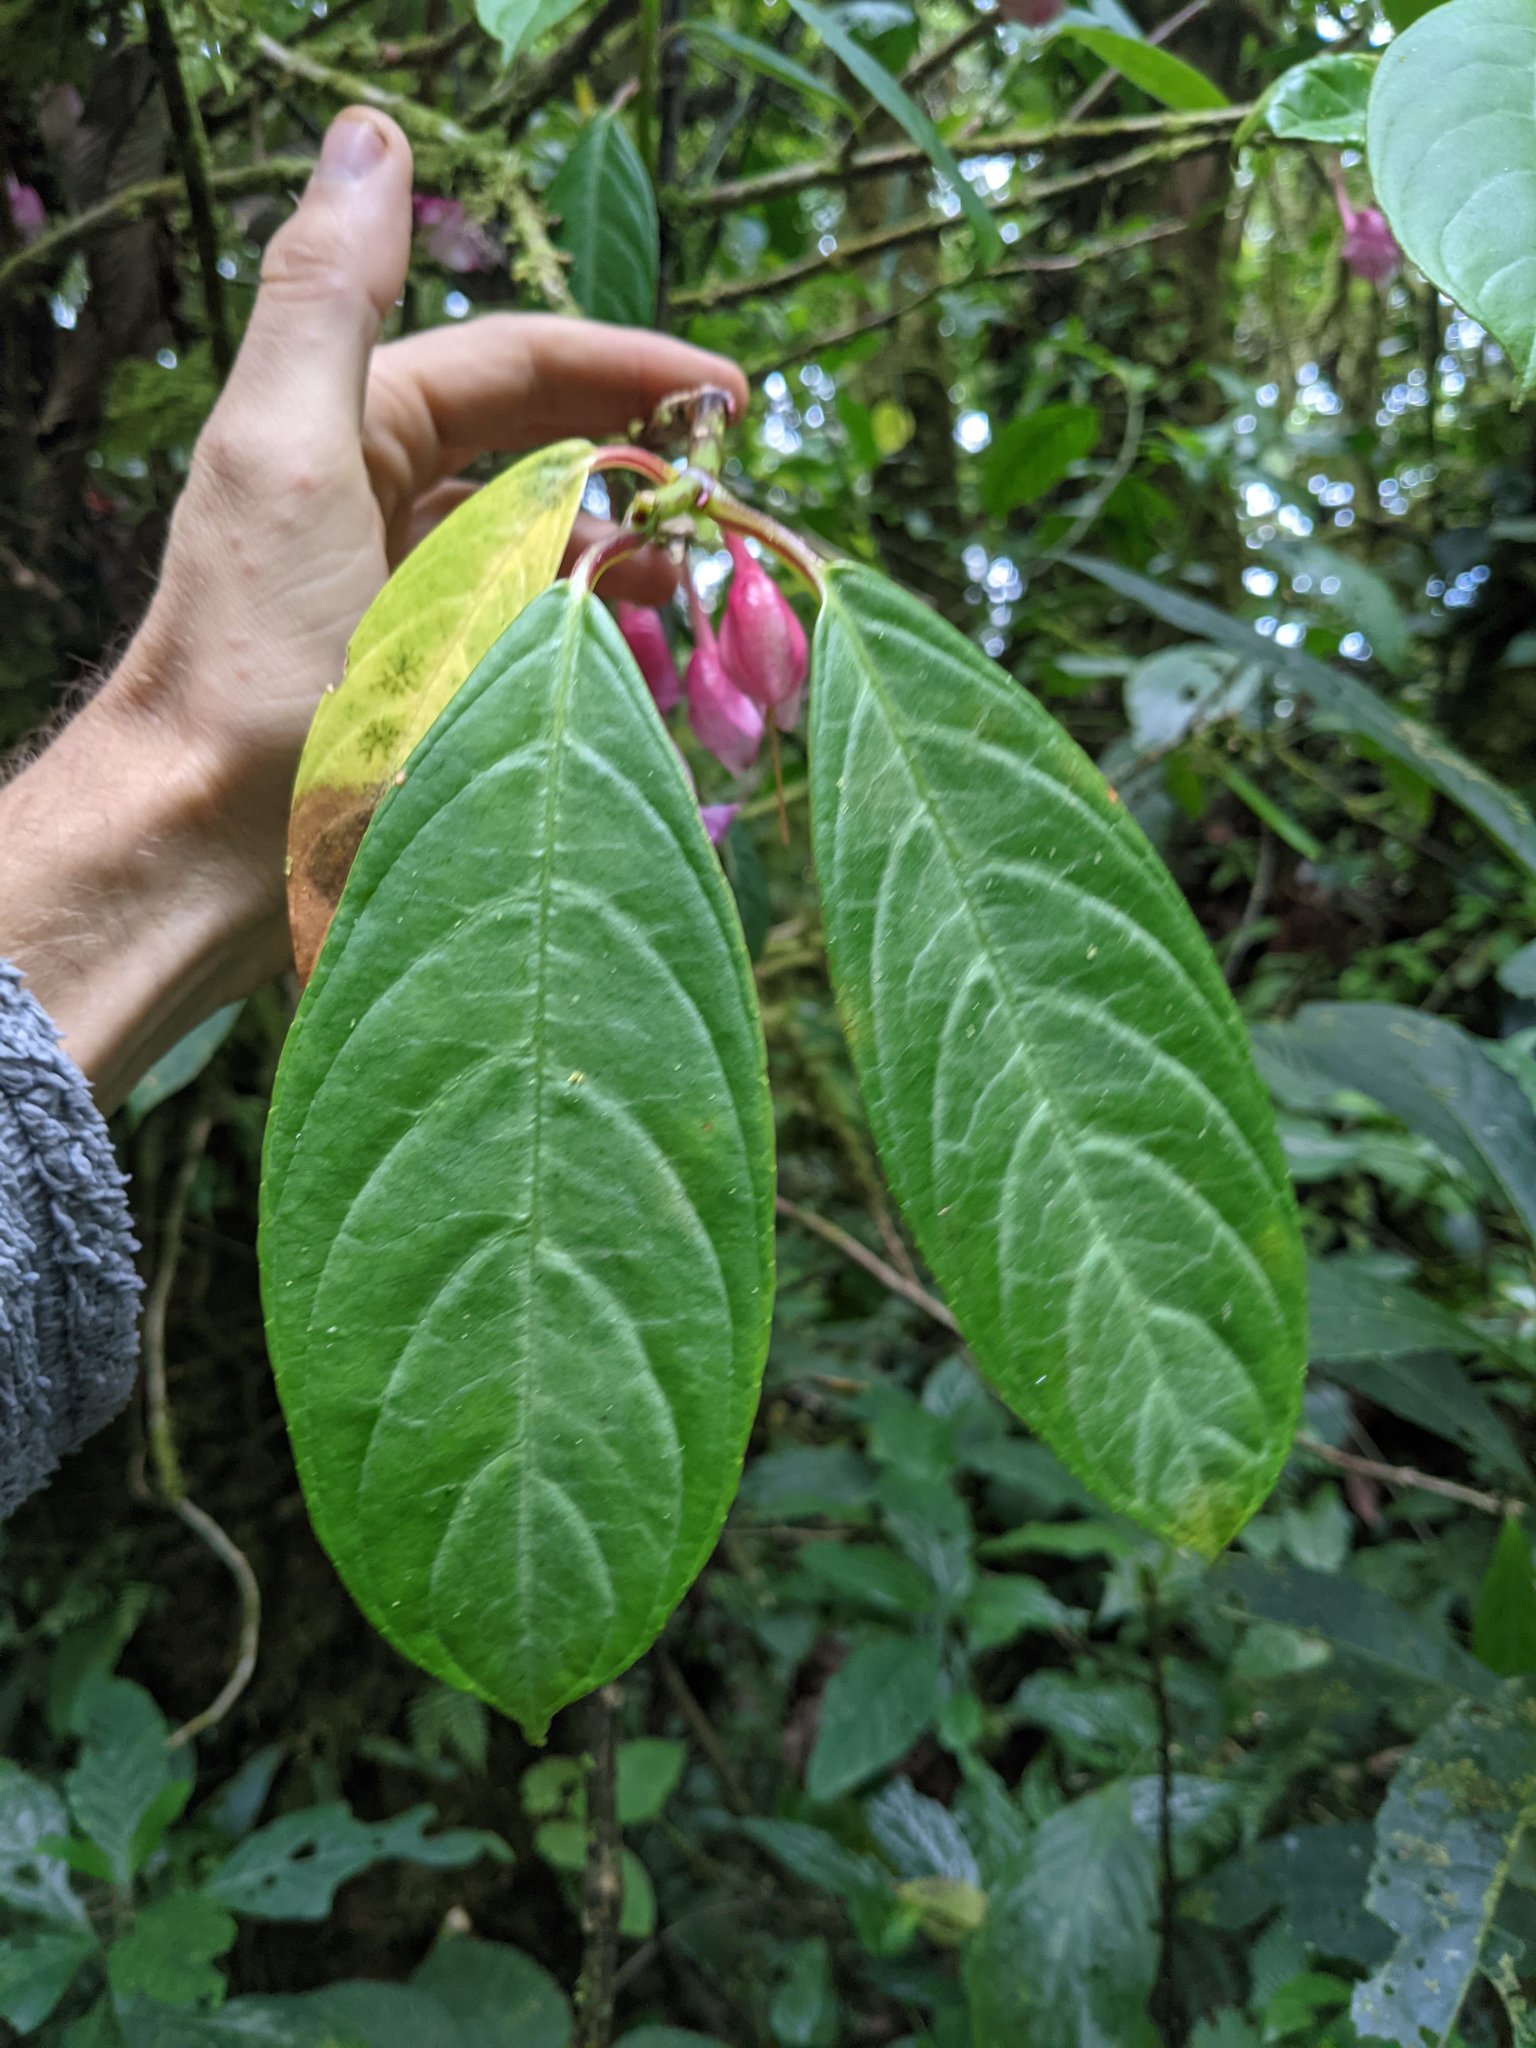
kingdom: Plantae
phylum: Tracheophyta
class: Magnoliopsida
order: Lamiales
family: Gesneriaceae
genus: Drymonia
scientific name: Drymonia conchocalyx
